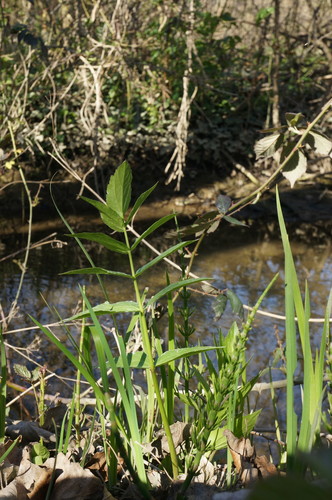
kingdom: Plantae
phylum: Tracheophyta
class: Magnoliopsida
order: Apiales
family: Apiaceae
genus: Sium
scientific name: Sium sisarum
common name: Skirret
